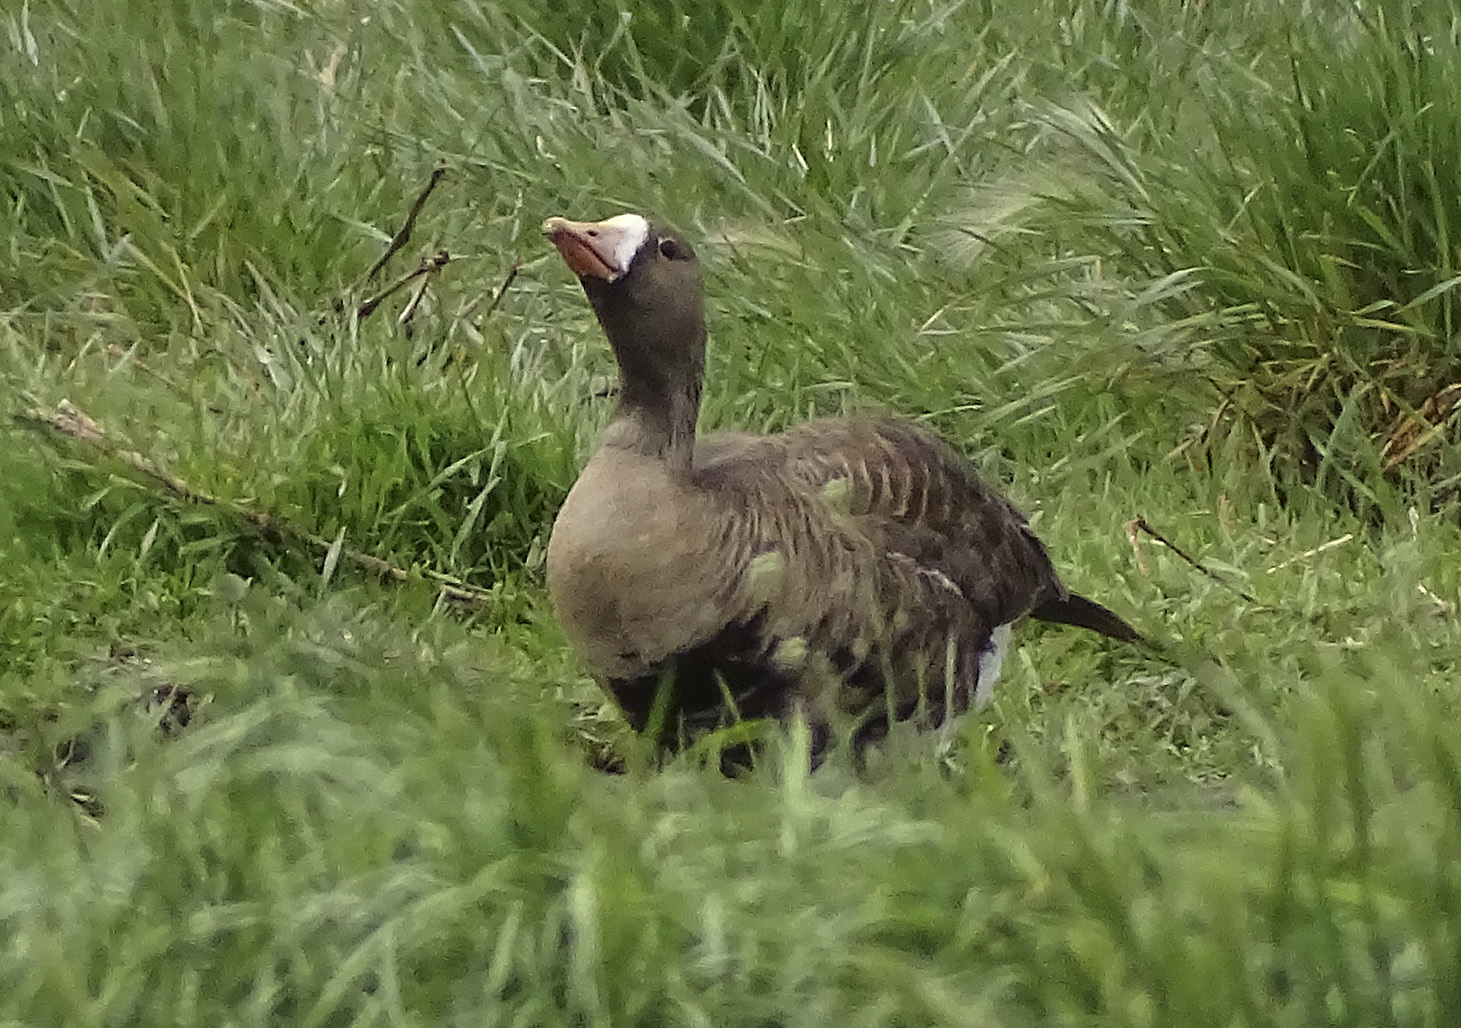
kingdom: Animalia
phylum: Chordata
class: Aves
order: Anseriformes
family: Anatidae
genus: Anser
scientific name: Anser albifrons
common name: Greater white-fronted goose
